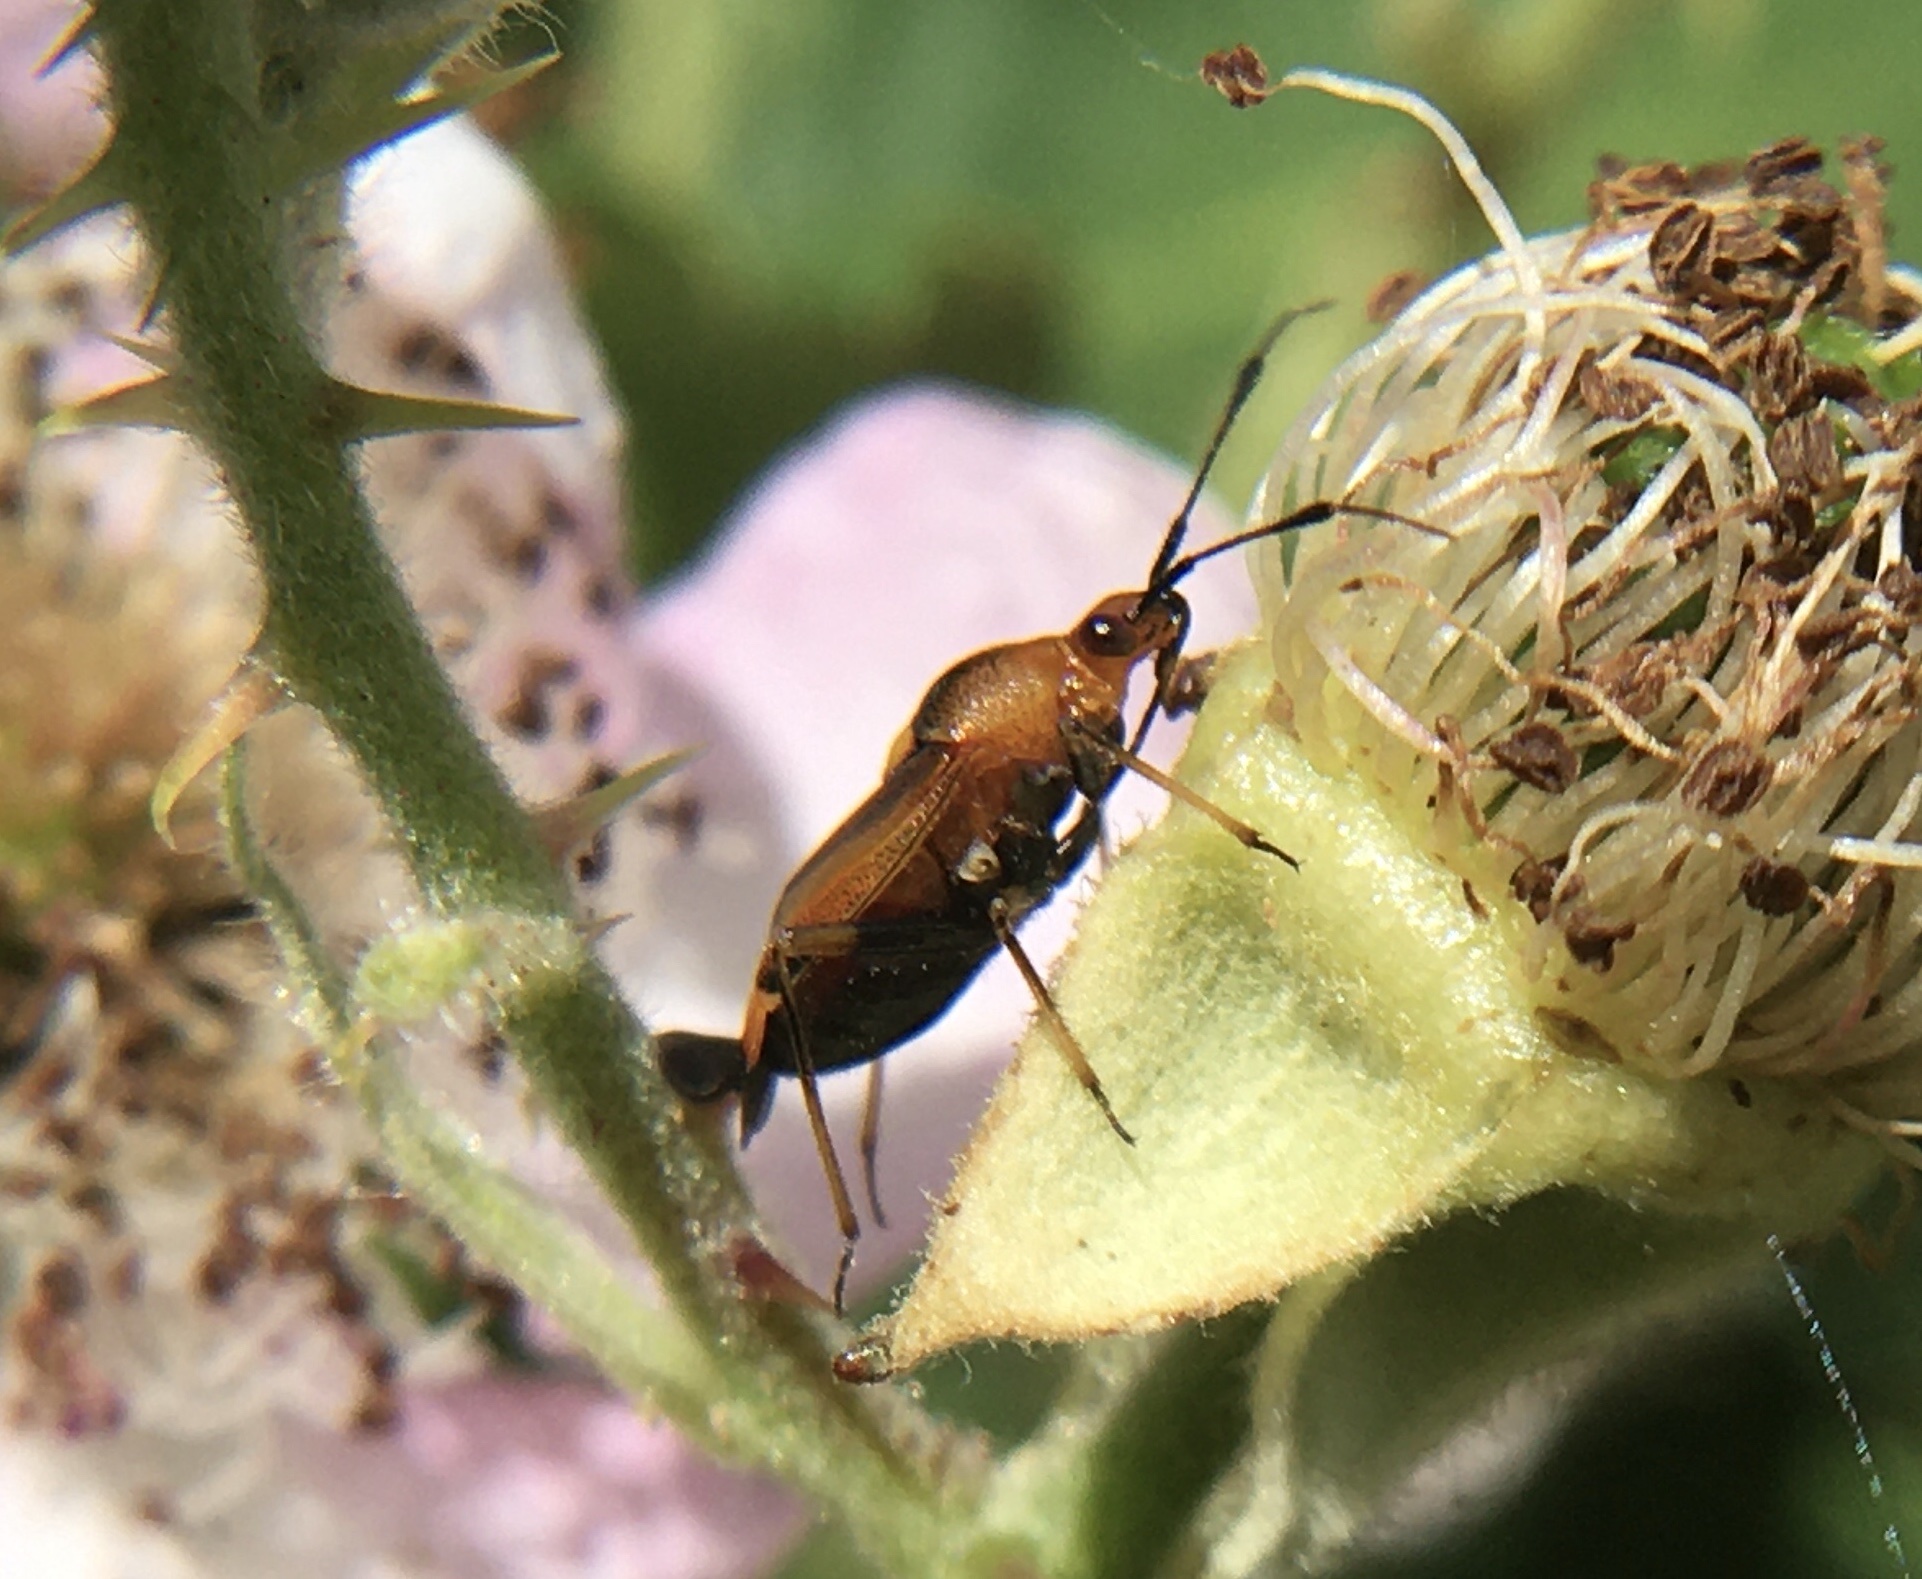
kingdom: Animalia
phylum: Arthropoda
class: Insecta
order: Hemiptera
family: Miridae
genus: Deraeocoris
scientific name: Deraeocoris ruber
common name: Plant bug
